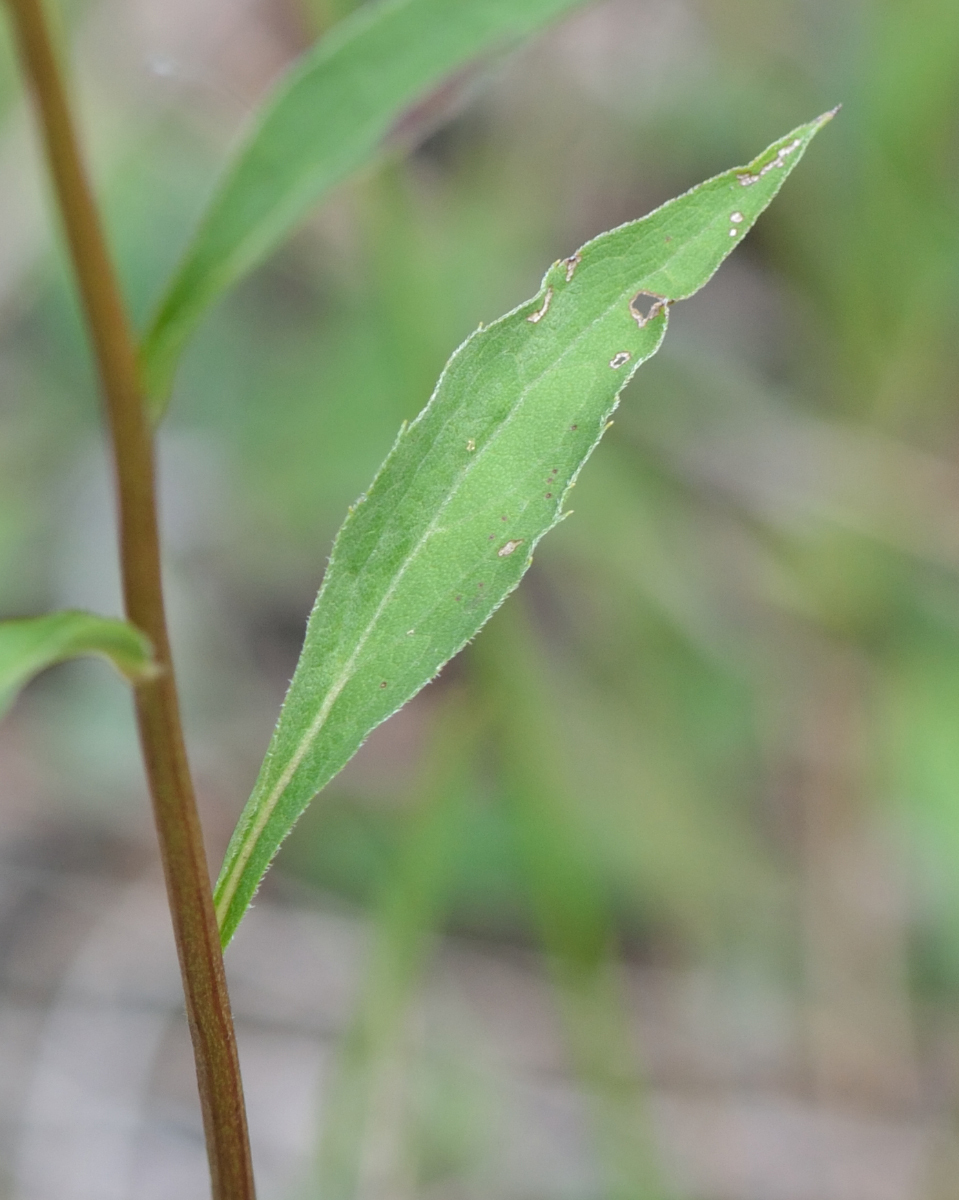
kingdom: Plantae
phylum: Tracheophyta
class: Magnoliopsida
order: Asterales
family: Asteraceae
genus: Solidago
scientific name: Solidago virgaurea
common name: Goldenrod
